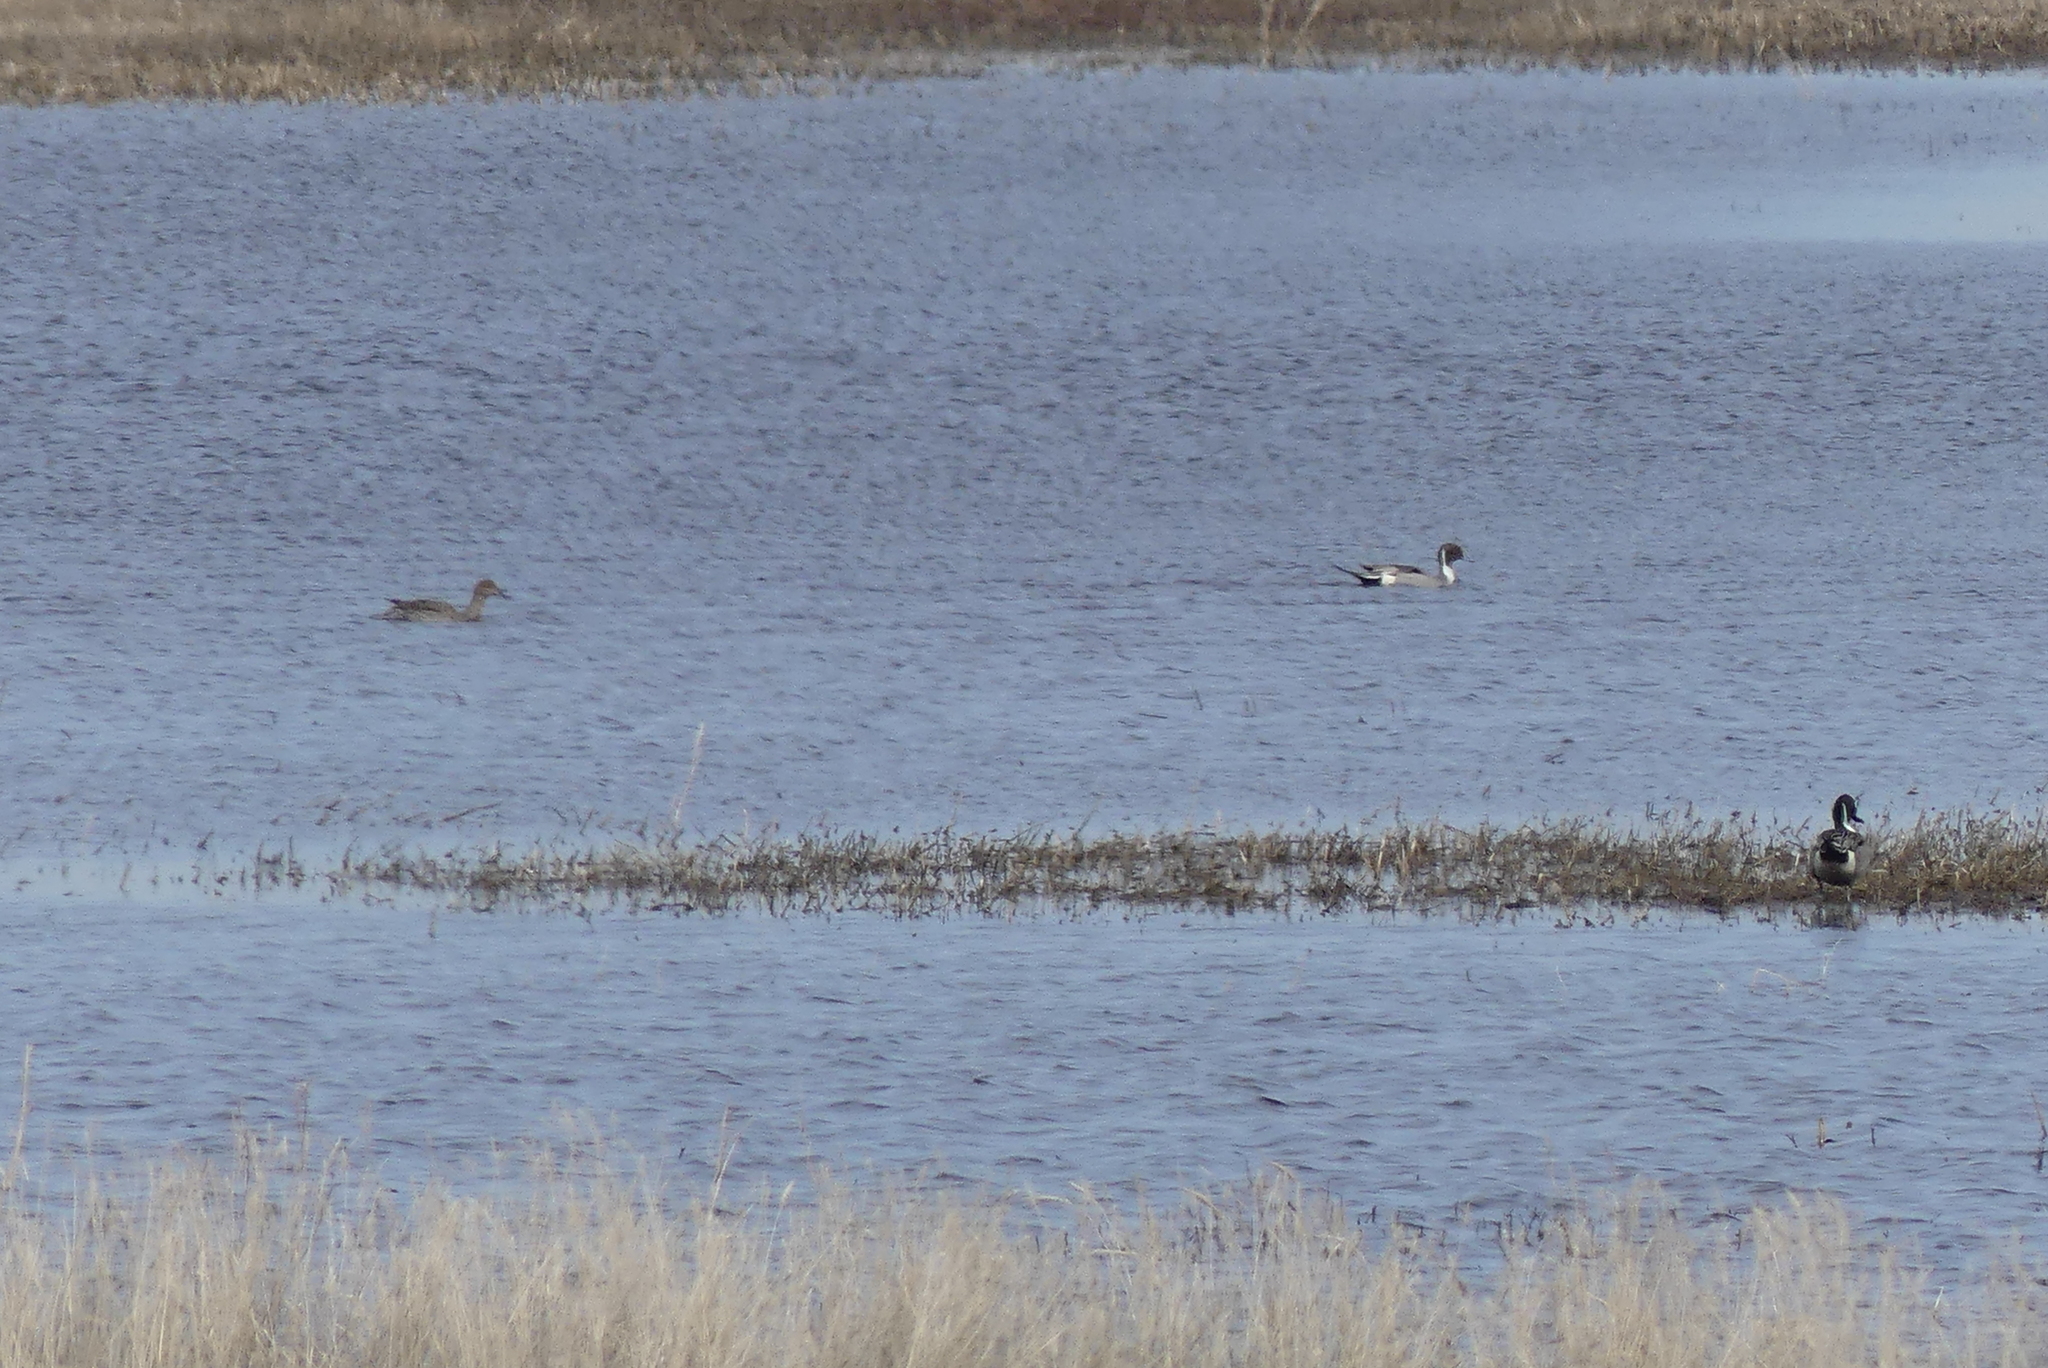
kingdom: Animalia
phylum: Chordata
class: Aves
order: Anseriformes
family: Anatidae
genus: Anas
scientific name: Anas acuta
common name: Northern pintail
